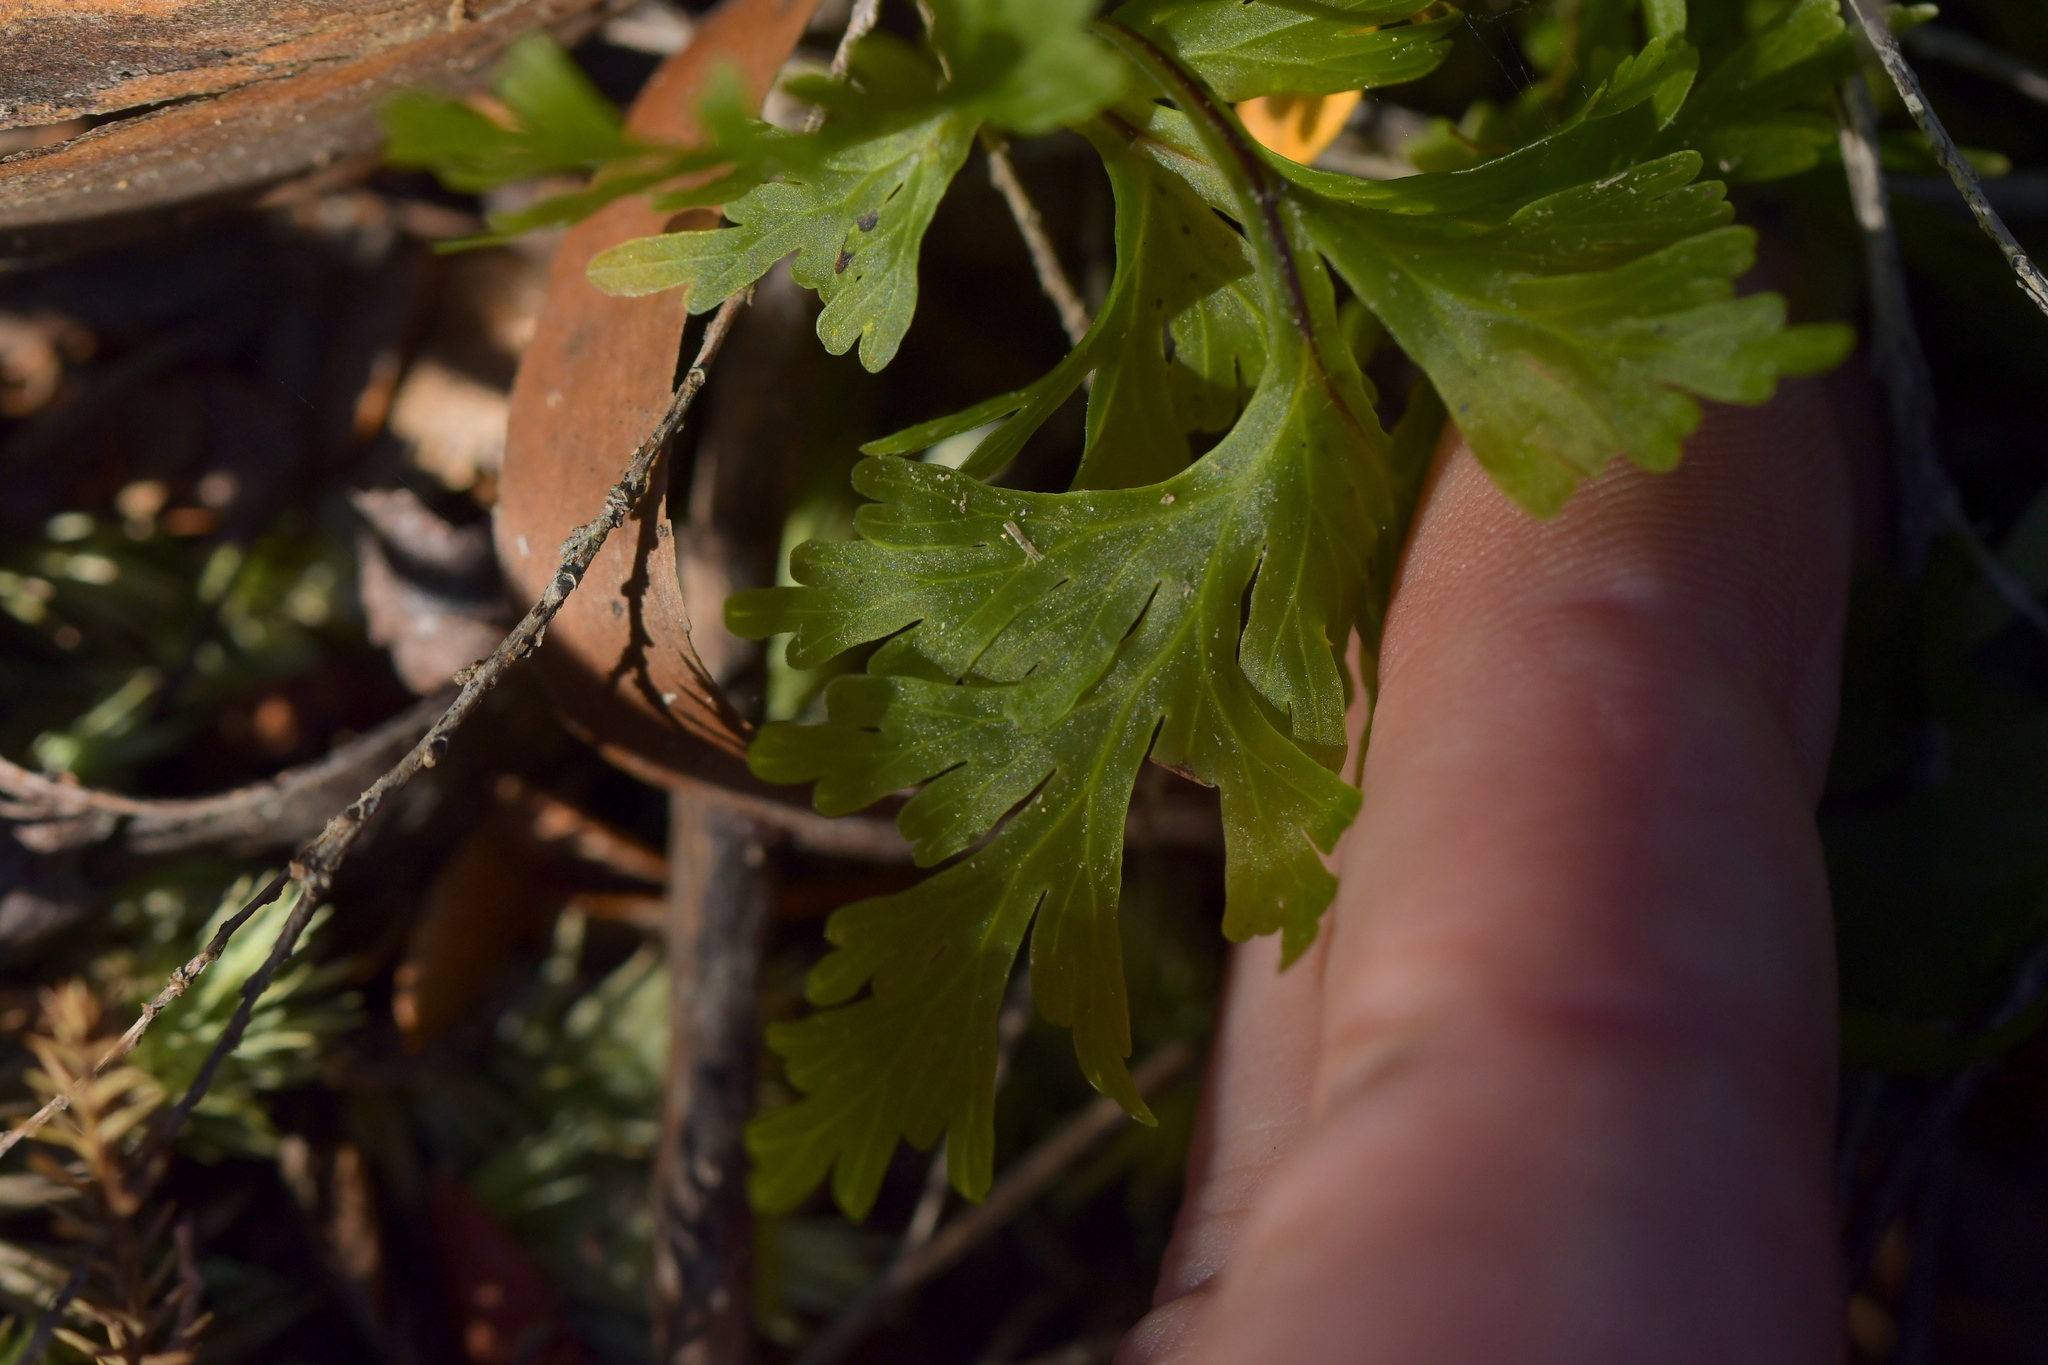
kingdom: Plantae
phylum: Tracheophyta
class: Polypodiopsida
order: Hymenophyllales
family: Hymenophyllaceae
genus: Hymenophyllum
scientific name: Hymenophyllum dilatatum
